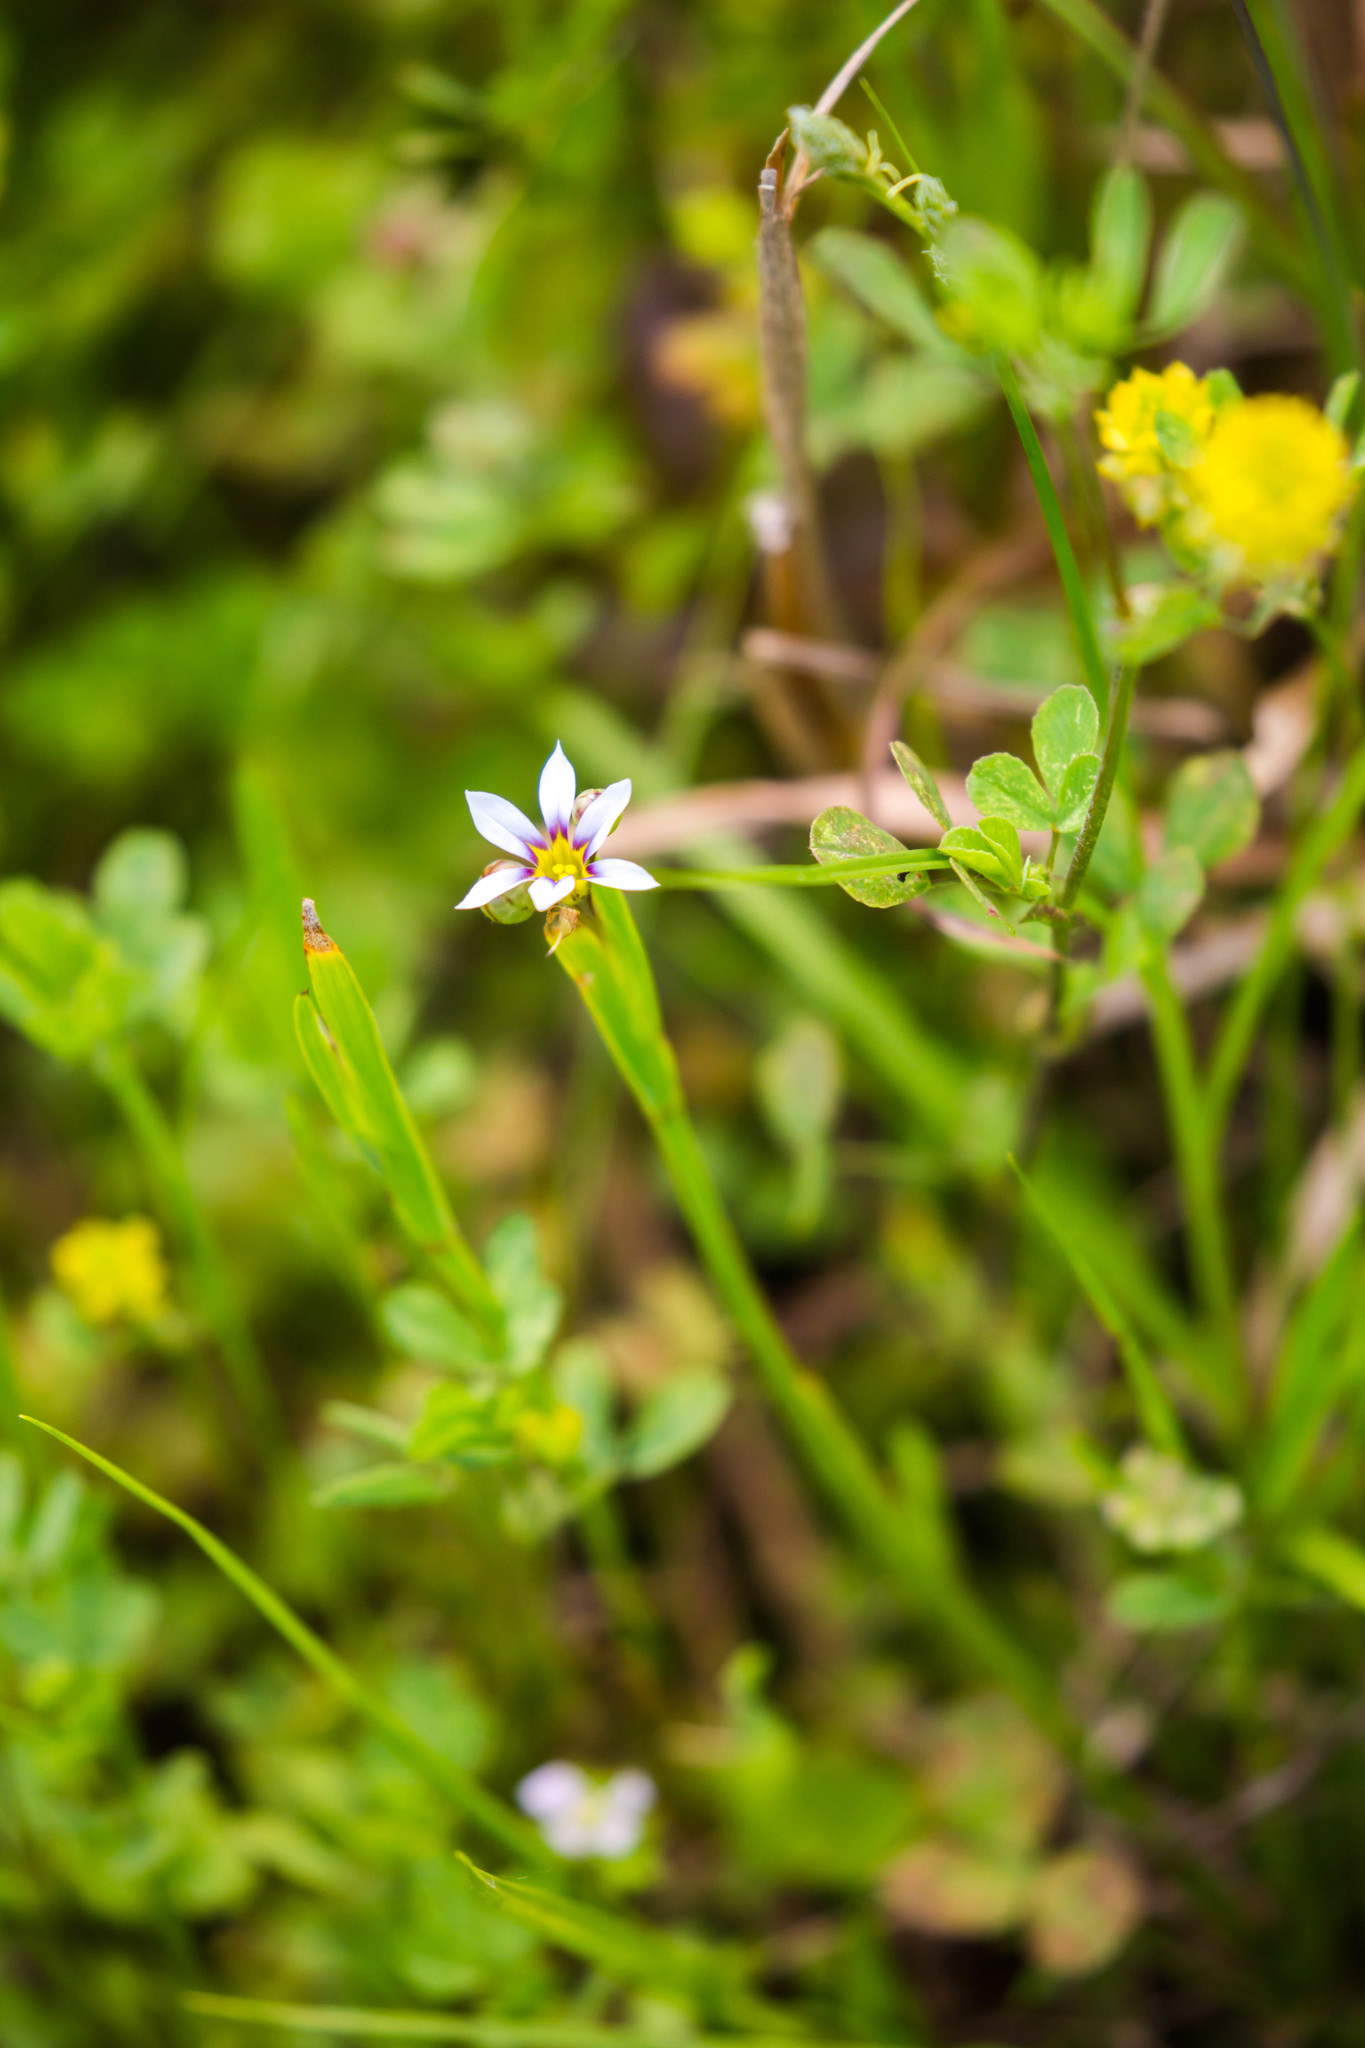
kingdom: Plantae
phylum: Tracheophyta
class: Liliopsida
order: Asparagales
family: Iridaceae
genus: Sisyrinchium
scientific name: Sisyrinchium micranthum
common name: Bermuda pigroot
